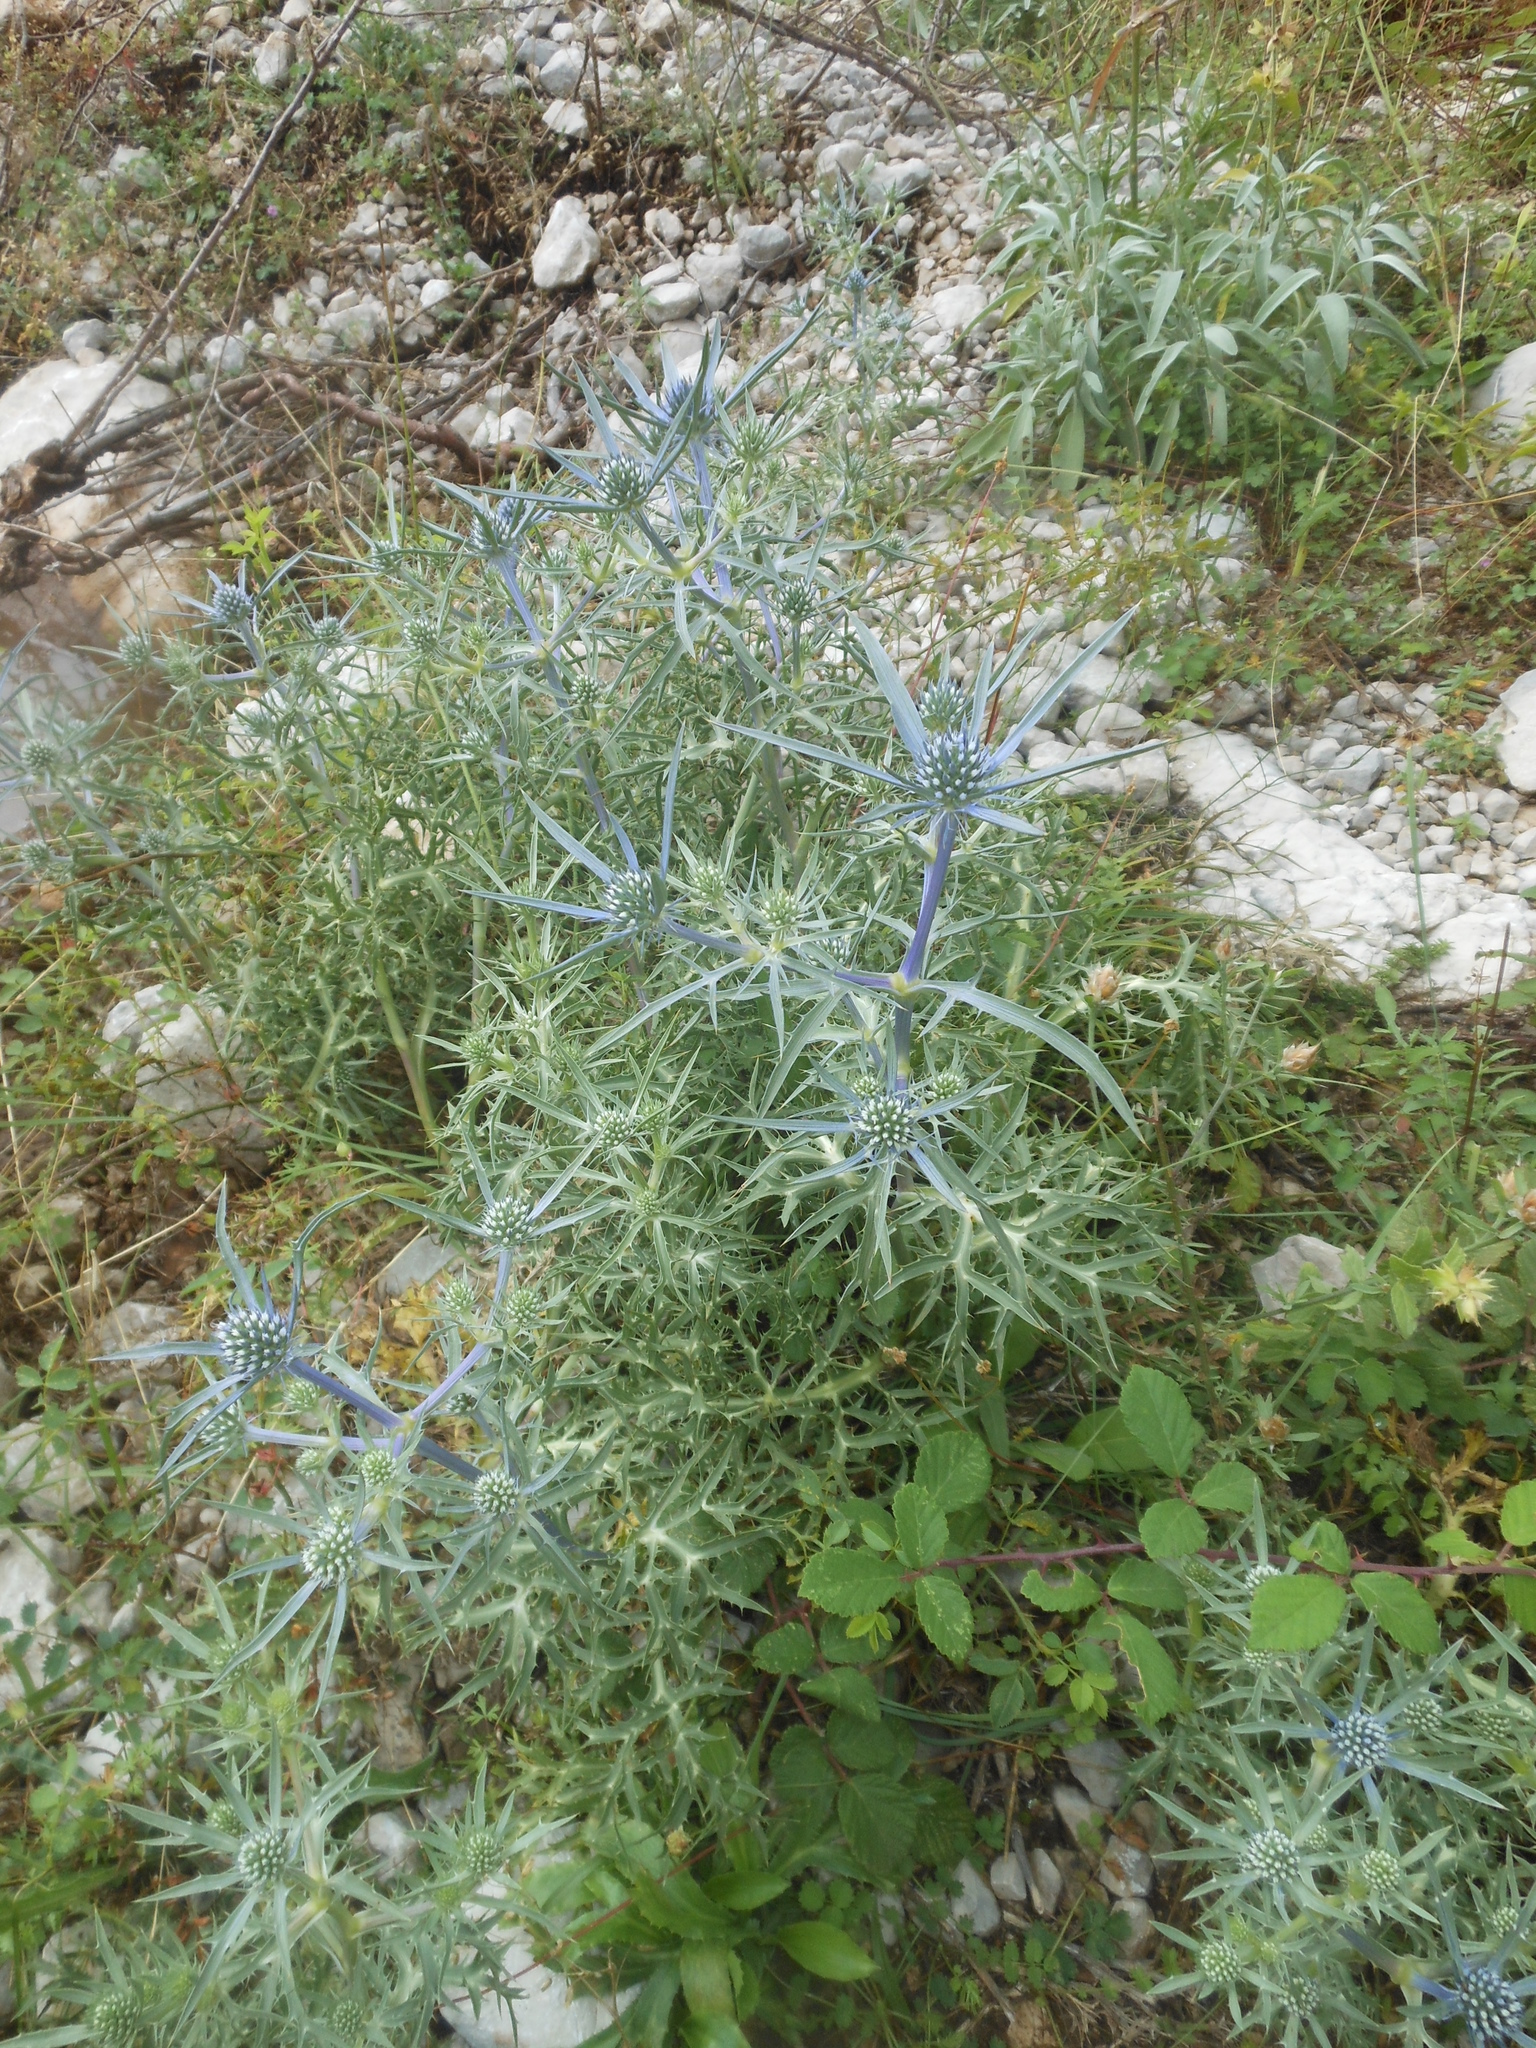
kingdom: Plantae
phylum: Tracheophyta
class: Magnoliopsida
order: Apiales
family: Apiaceae
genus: Eryngium
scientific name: Eryngium amethystinum
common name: Amethyst eryngo
